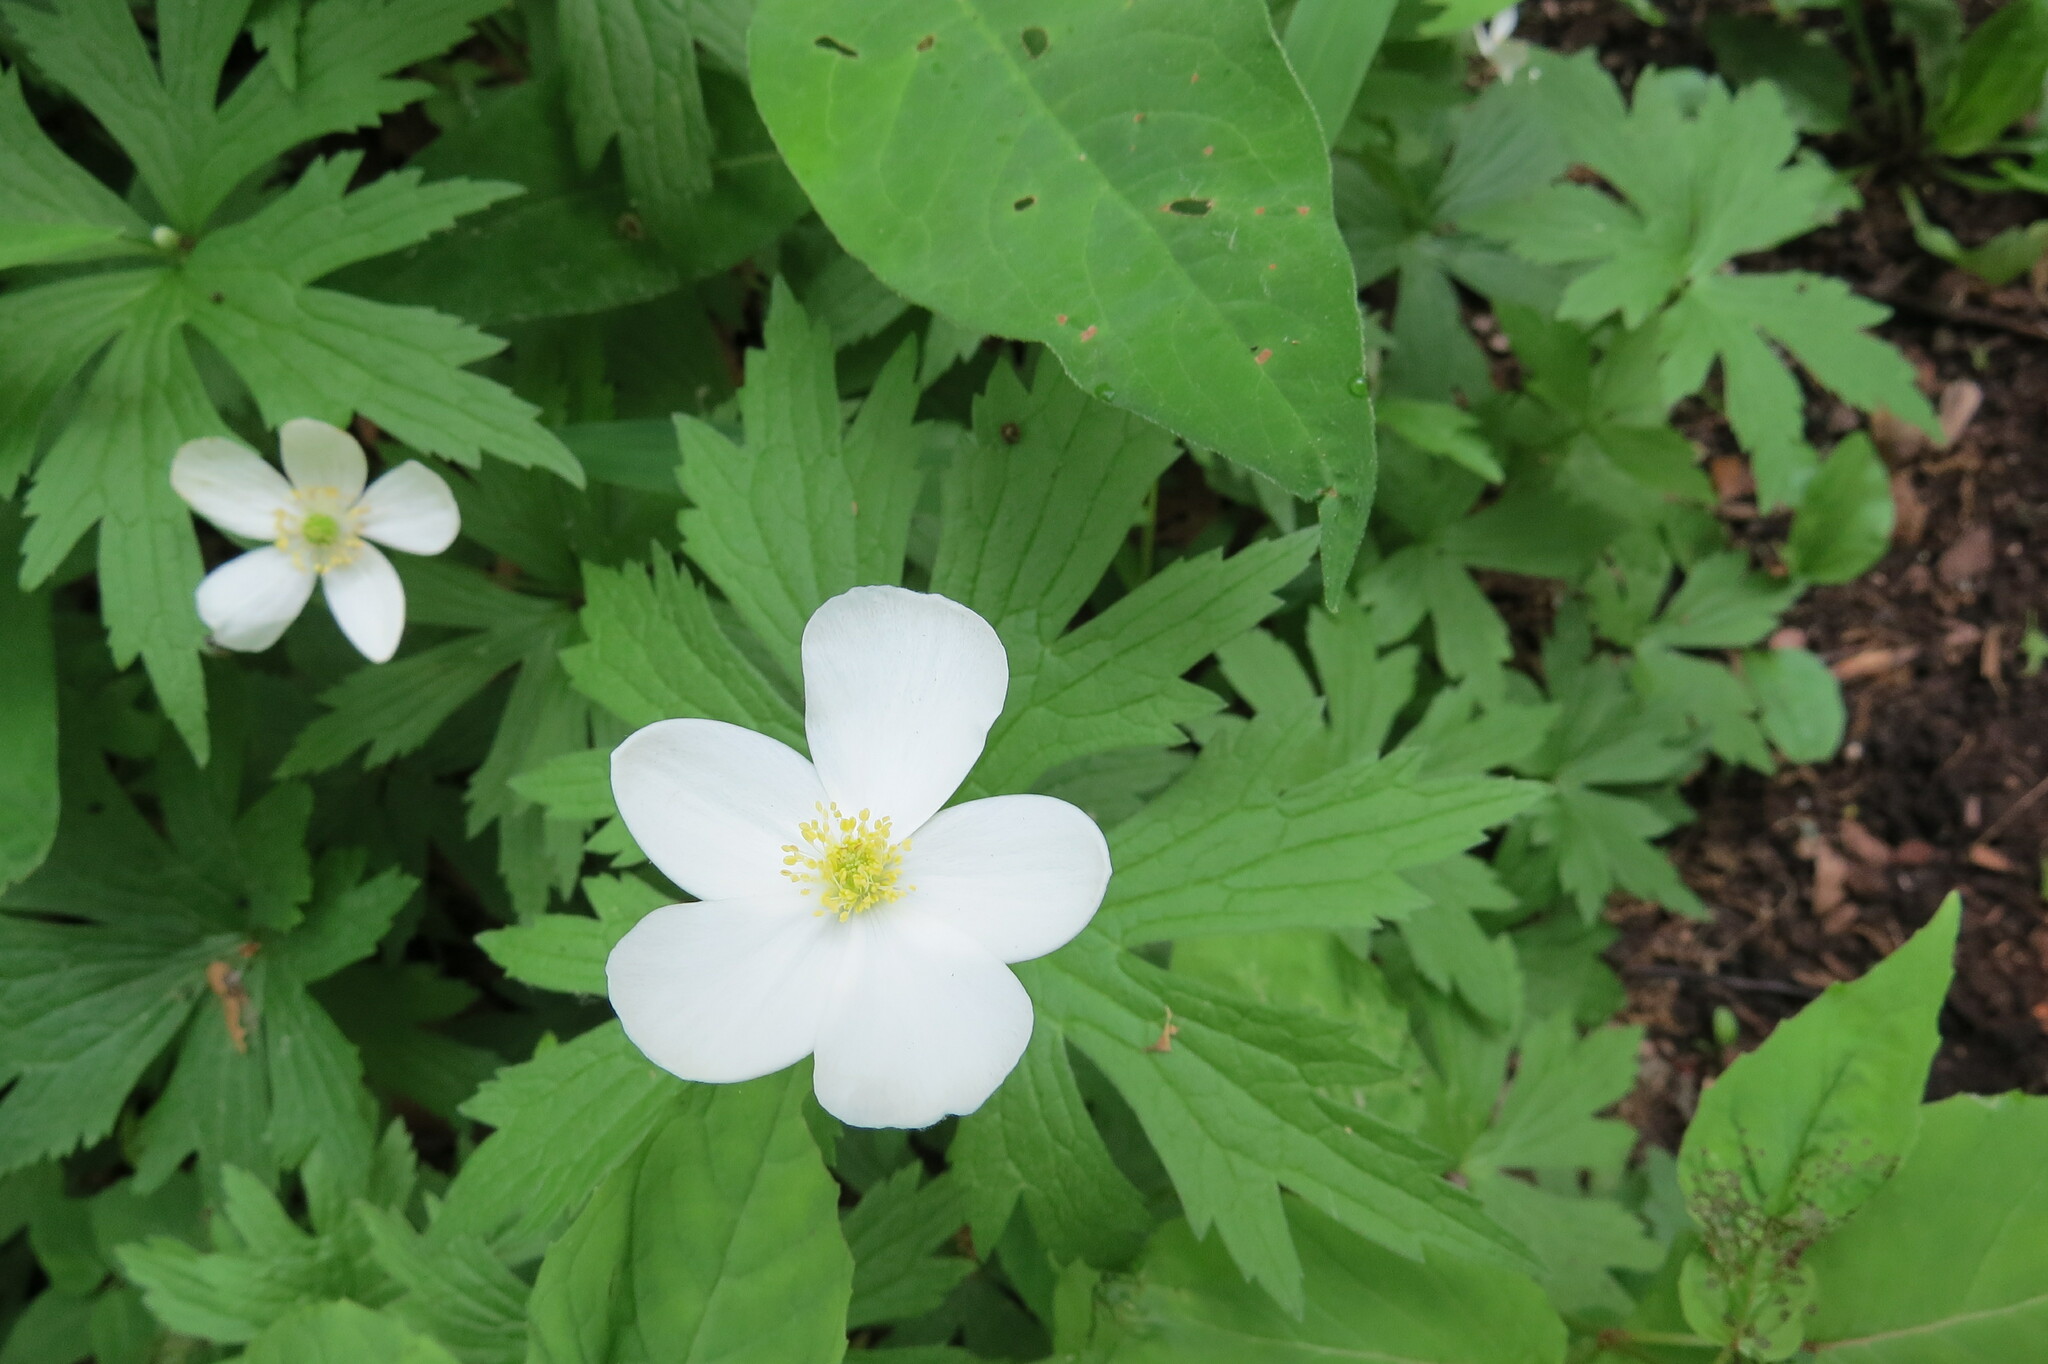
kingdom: Plantae
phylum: Tracheophyta
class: Magnoliopsida
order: Ranunculales
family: Ranunculaceae
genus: Anemonastrum
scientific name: Anemonastrum canadense
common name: Canada anemone
